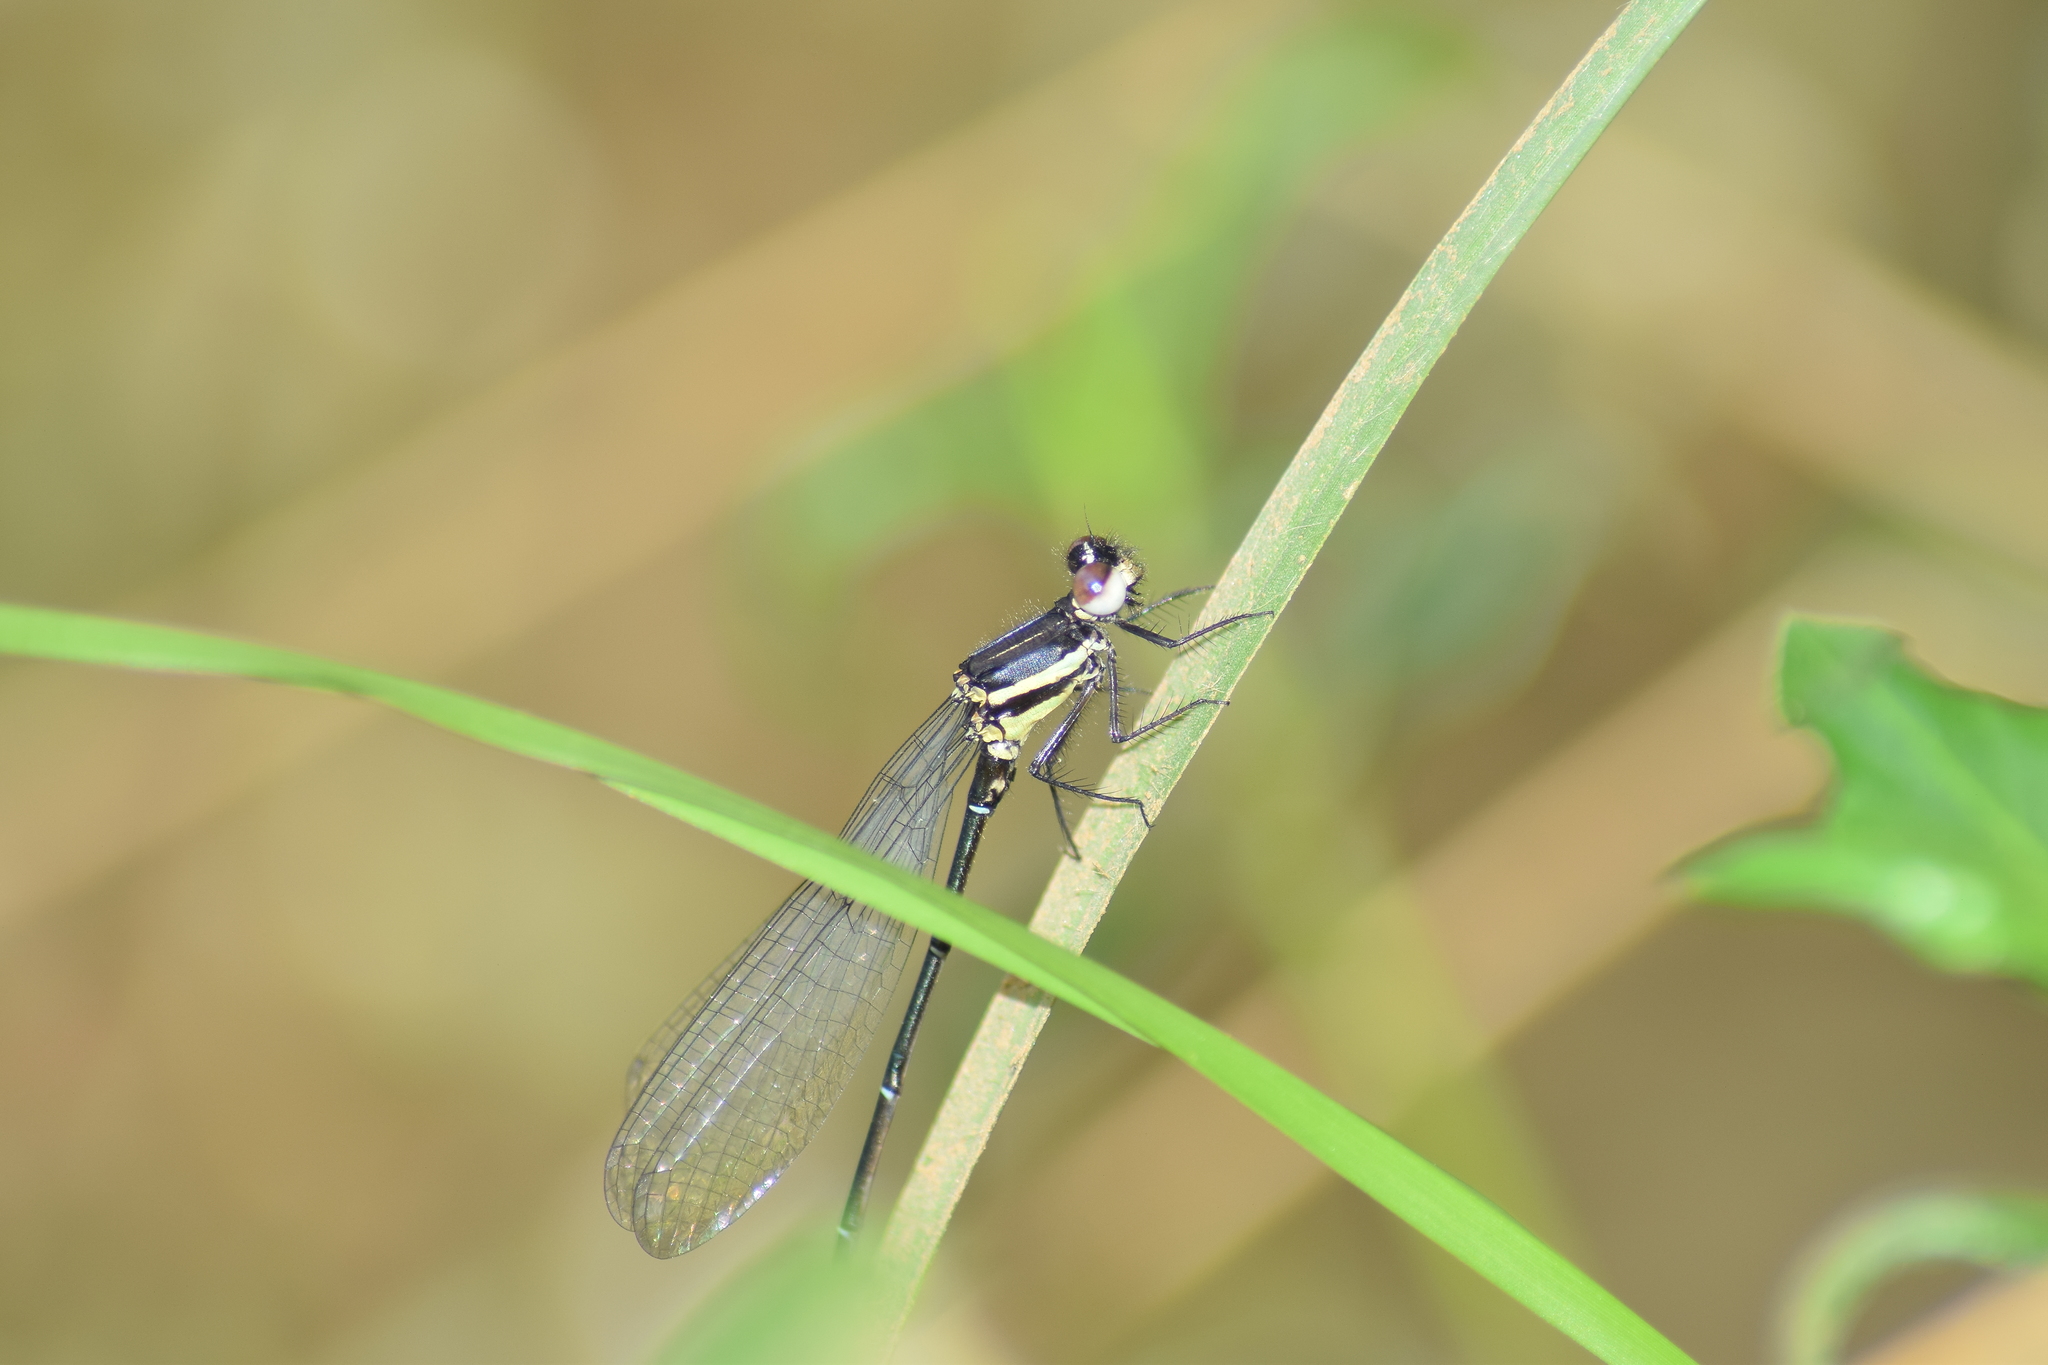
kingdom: Animalia
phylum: Arthropoda
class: Insecta
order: Odonata
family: Platycnemididae
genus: Onychargia
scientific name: Onychargia atrocyana
